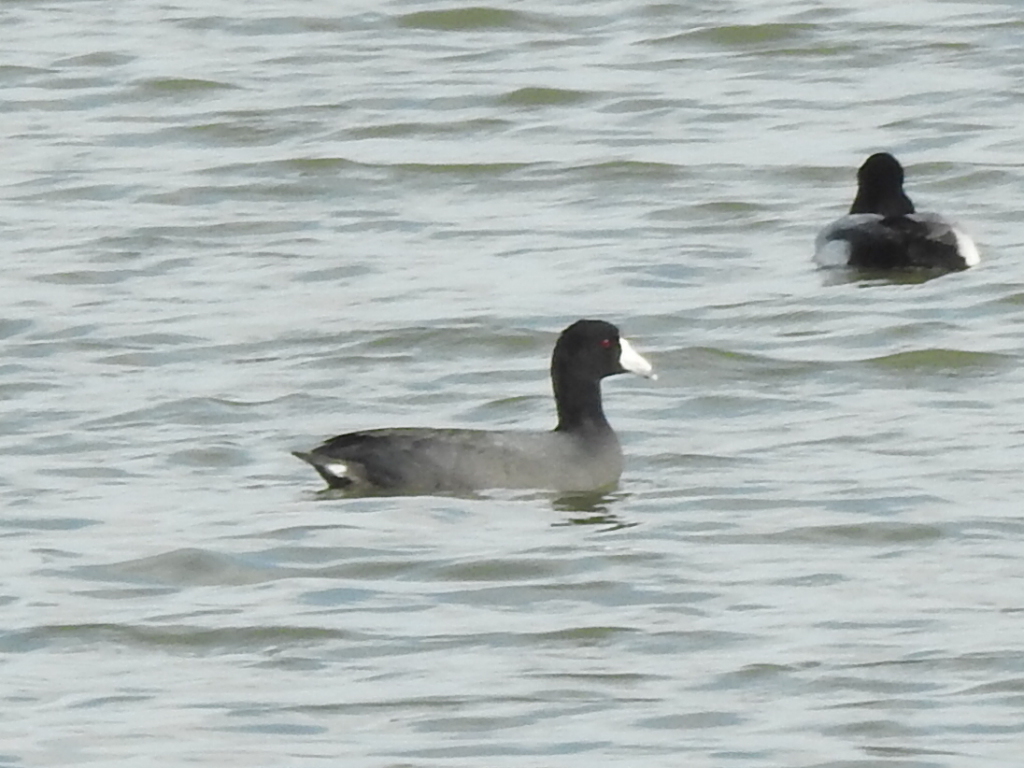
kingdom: Animalia
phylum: Chordata
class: Aves
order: Gruiformes
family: Rallidae
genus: Fulica
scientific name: Fulica americana
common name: American coot
